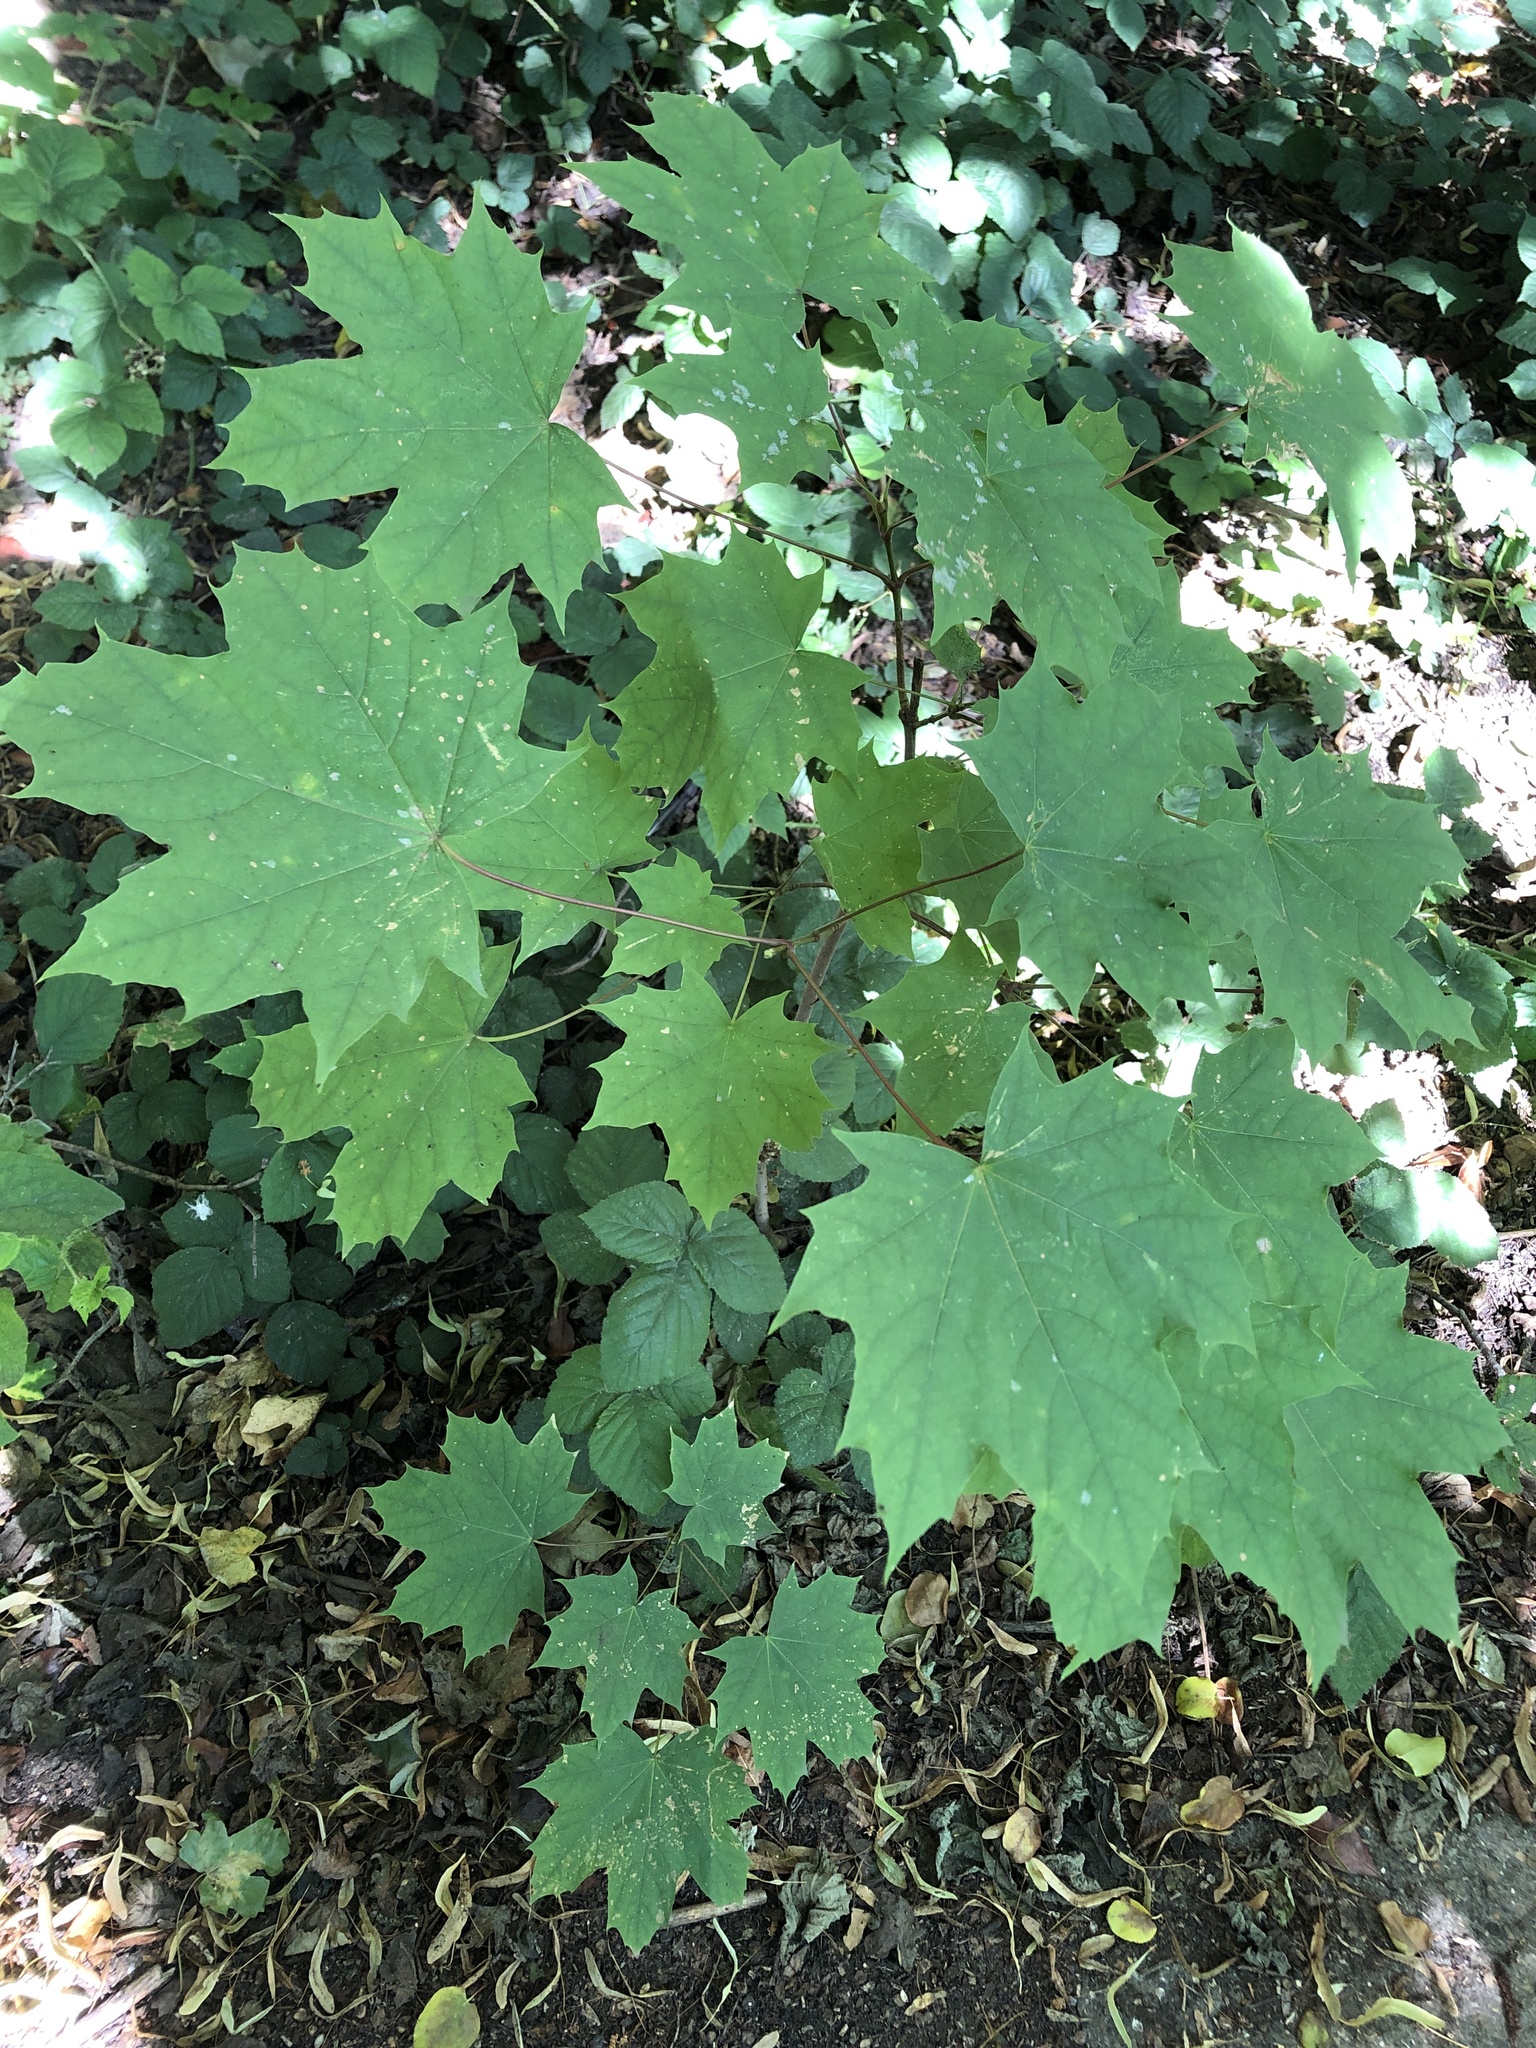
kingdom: Plantae
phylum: Tracheophyta
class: Magnoliopsida
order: Sapindales
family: Sapindaceae
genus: Acer
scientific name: Acer platanoides
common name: Norway maple
